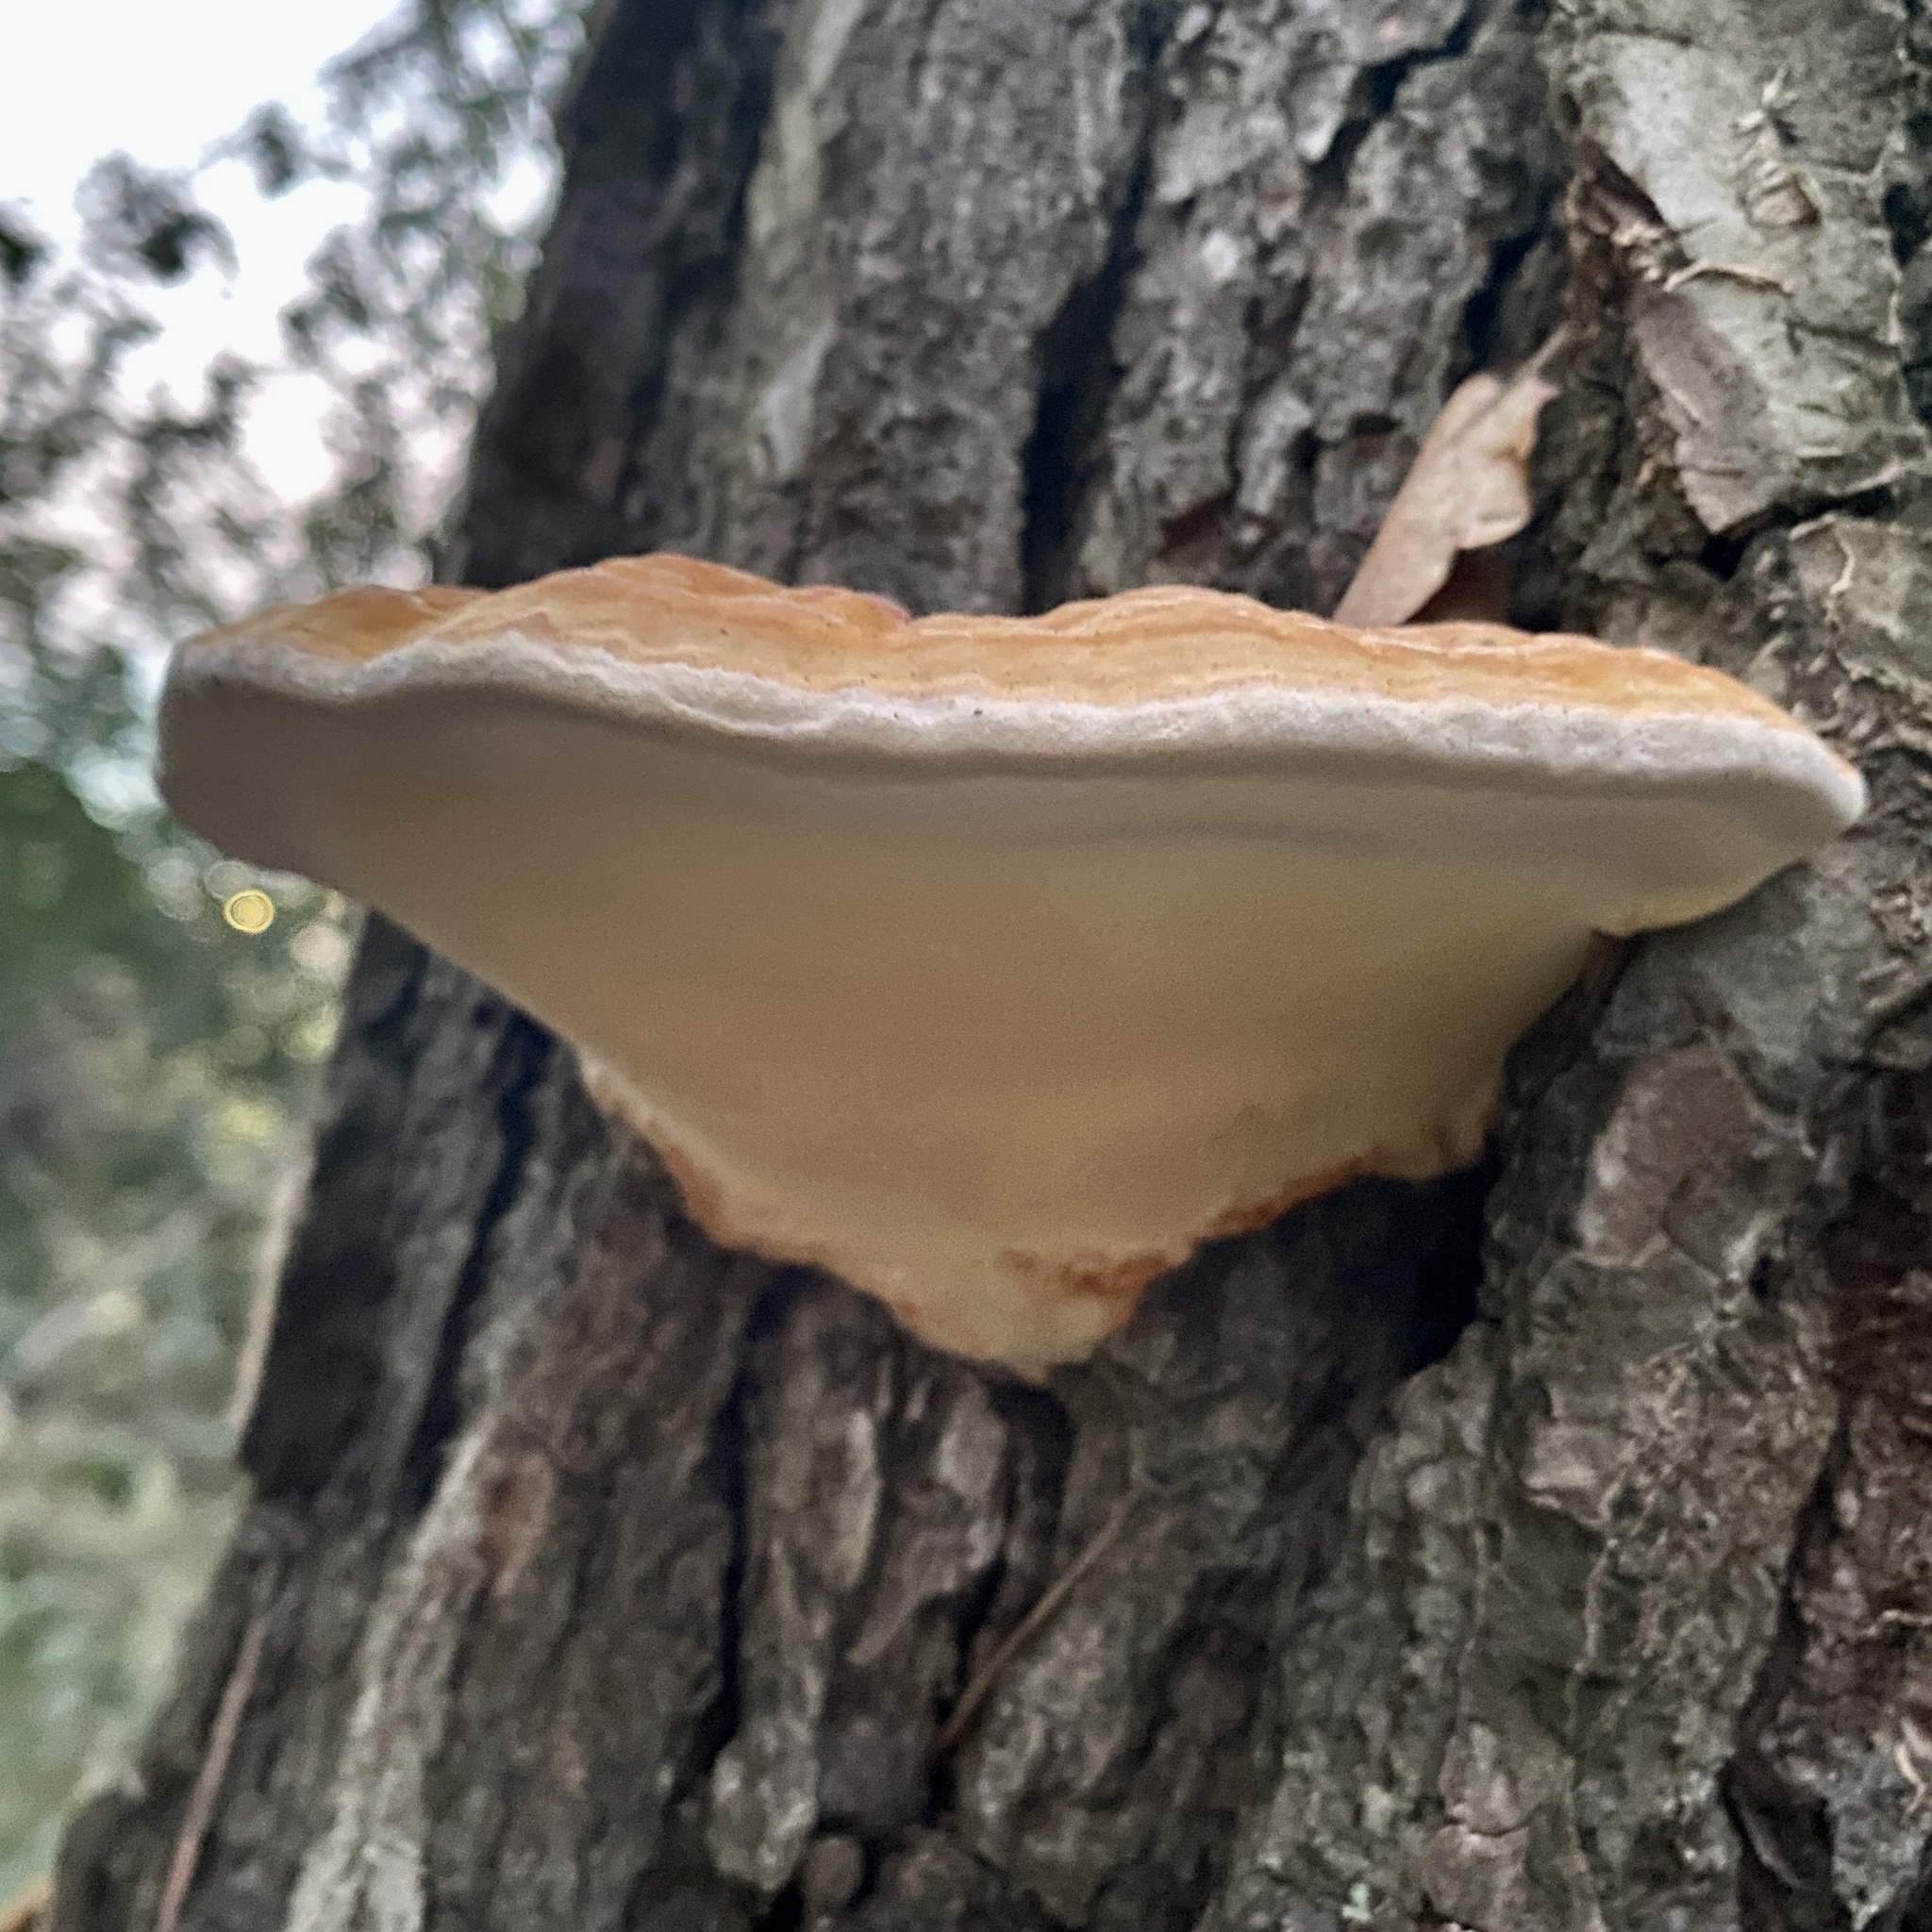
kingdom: Fungi
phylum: Basidiomycota
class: Agaricomycetes
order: Polyporales
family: Fomitopsidaceae
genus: Fomitopsis
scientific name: Fomitopsis pinicola
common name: Red-belted bracket
